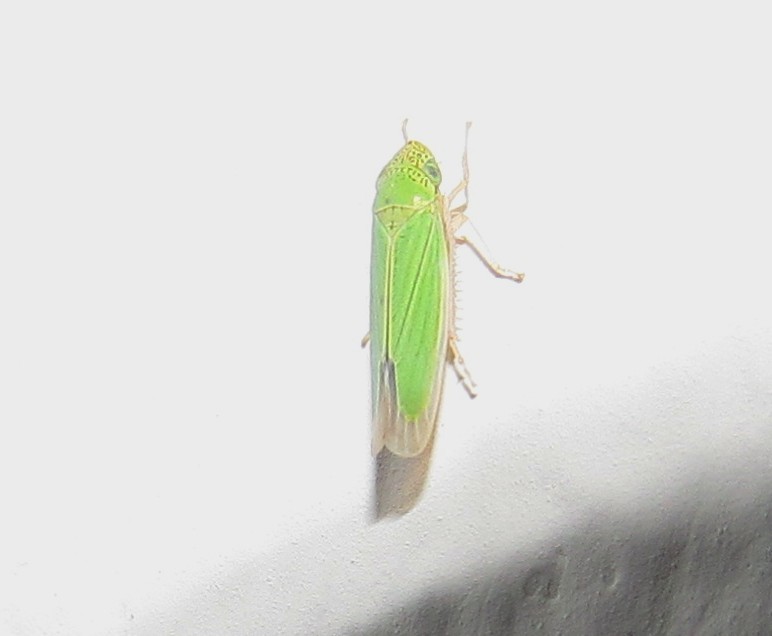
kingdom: Animalia
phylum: Arthropoda
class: Insecta
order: Hemiptera
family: Cicadellidae
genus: Hortensia
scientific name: Hortensia similis
